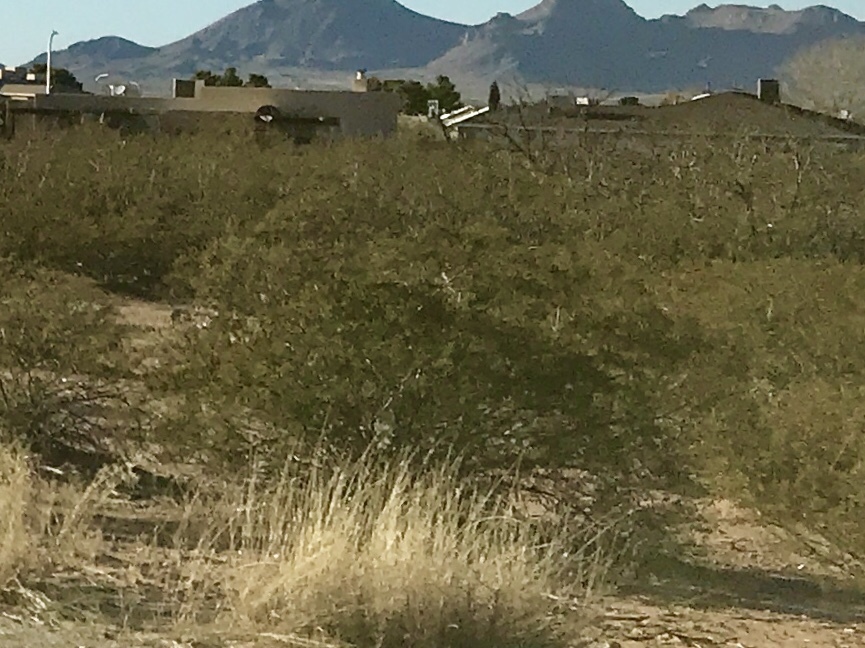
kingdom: Plantae
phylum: Tracheophyta
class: Magnoliopsida
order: Zygophyllales
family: Zygophyllaceae
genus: Larrea
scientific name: Larrea tridentata
